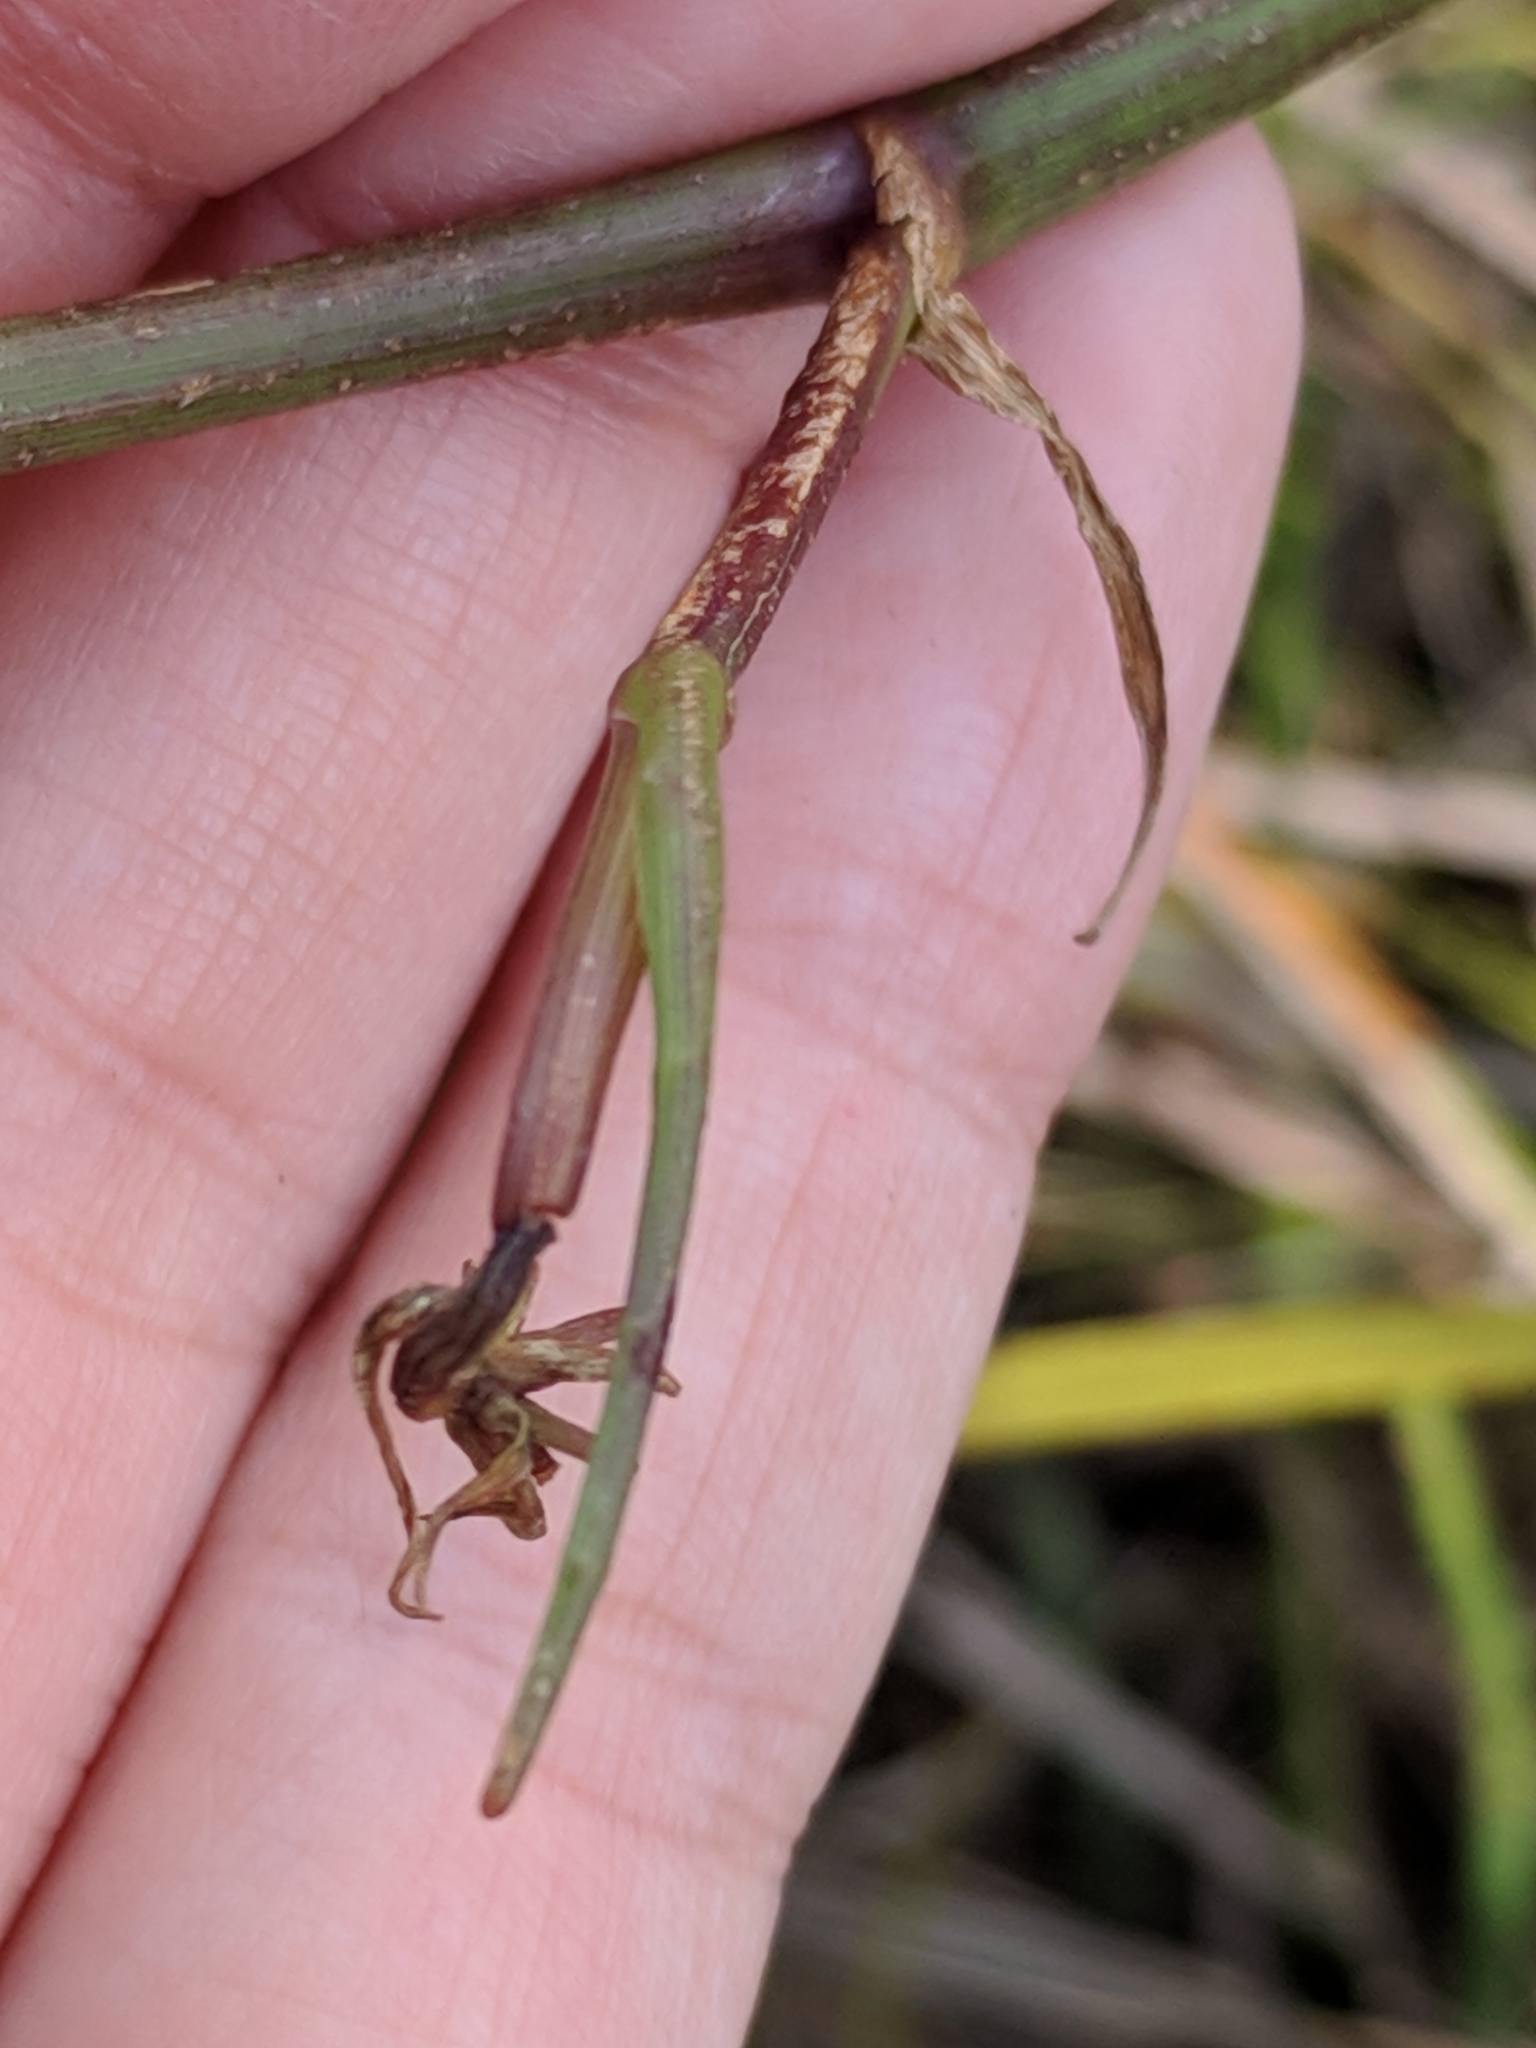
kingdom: Plantae
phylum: Tracheophyta
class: Magnoliopsida
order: Apiales
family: Apiaceae
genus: Tiedemannia
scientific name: Tiedemannia filiformis
